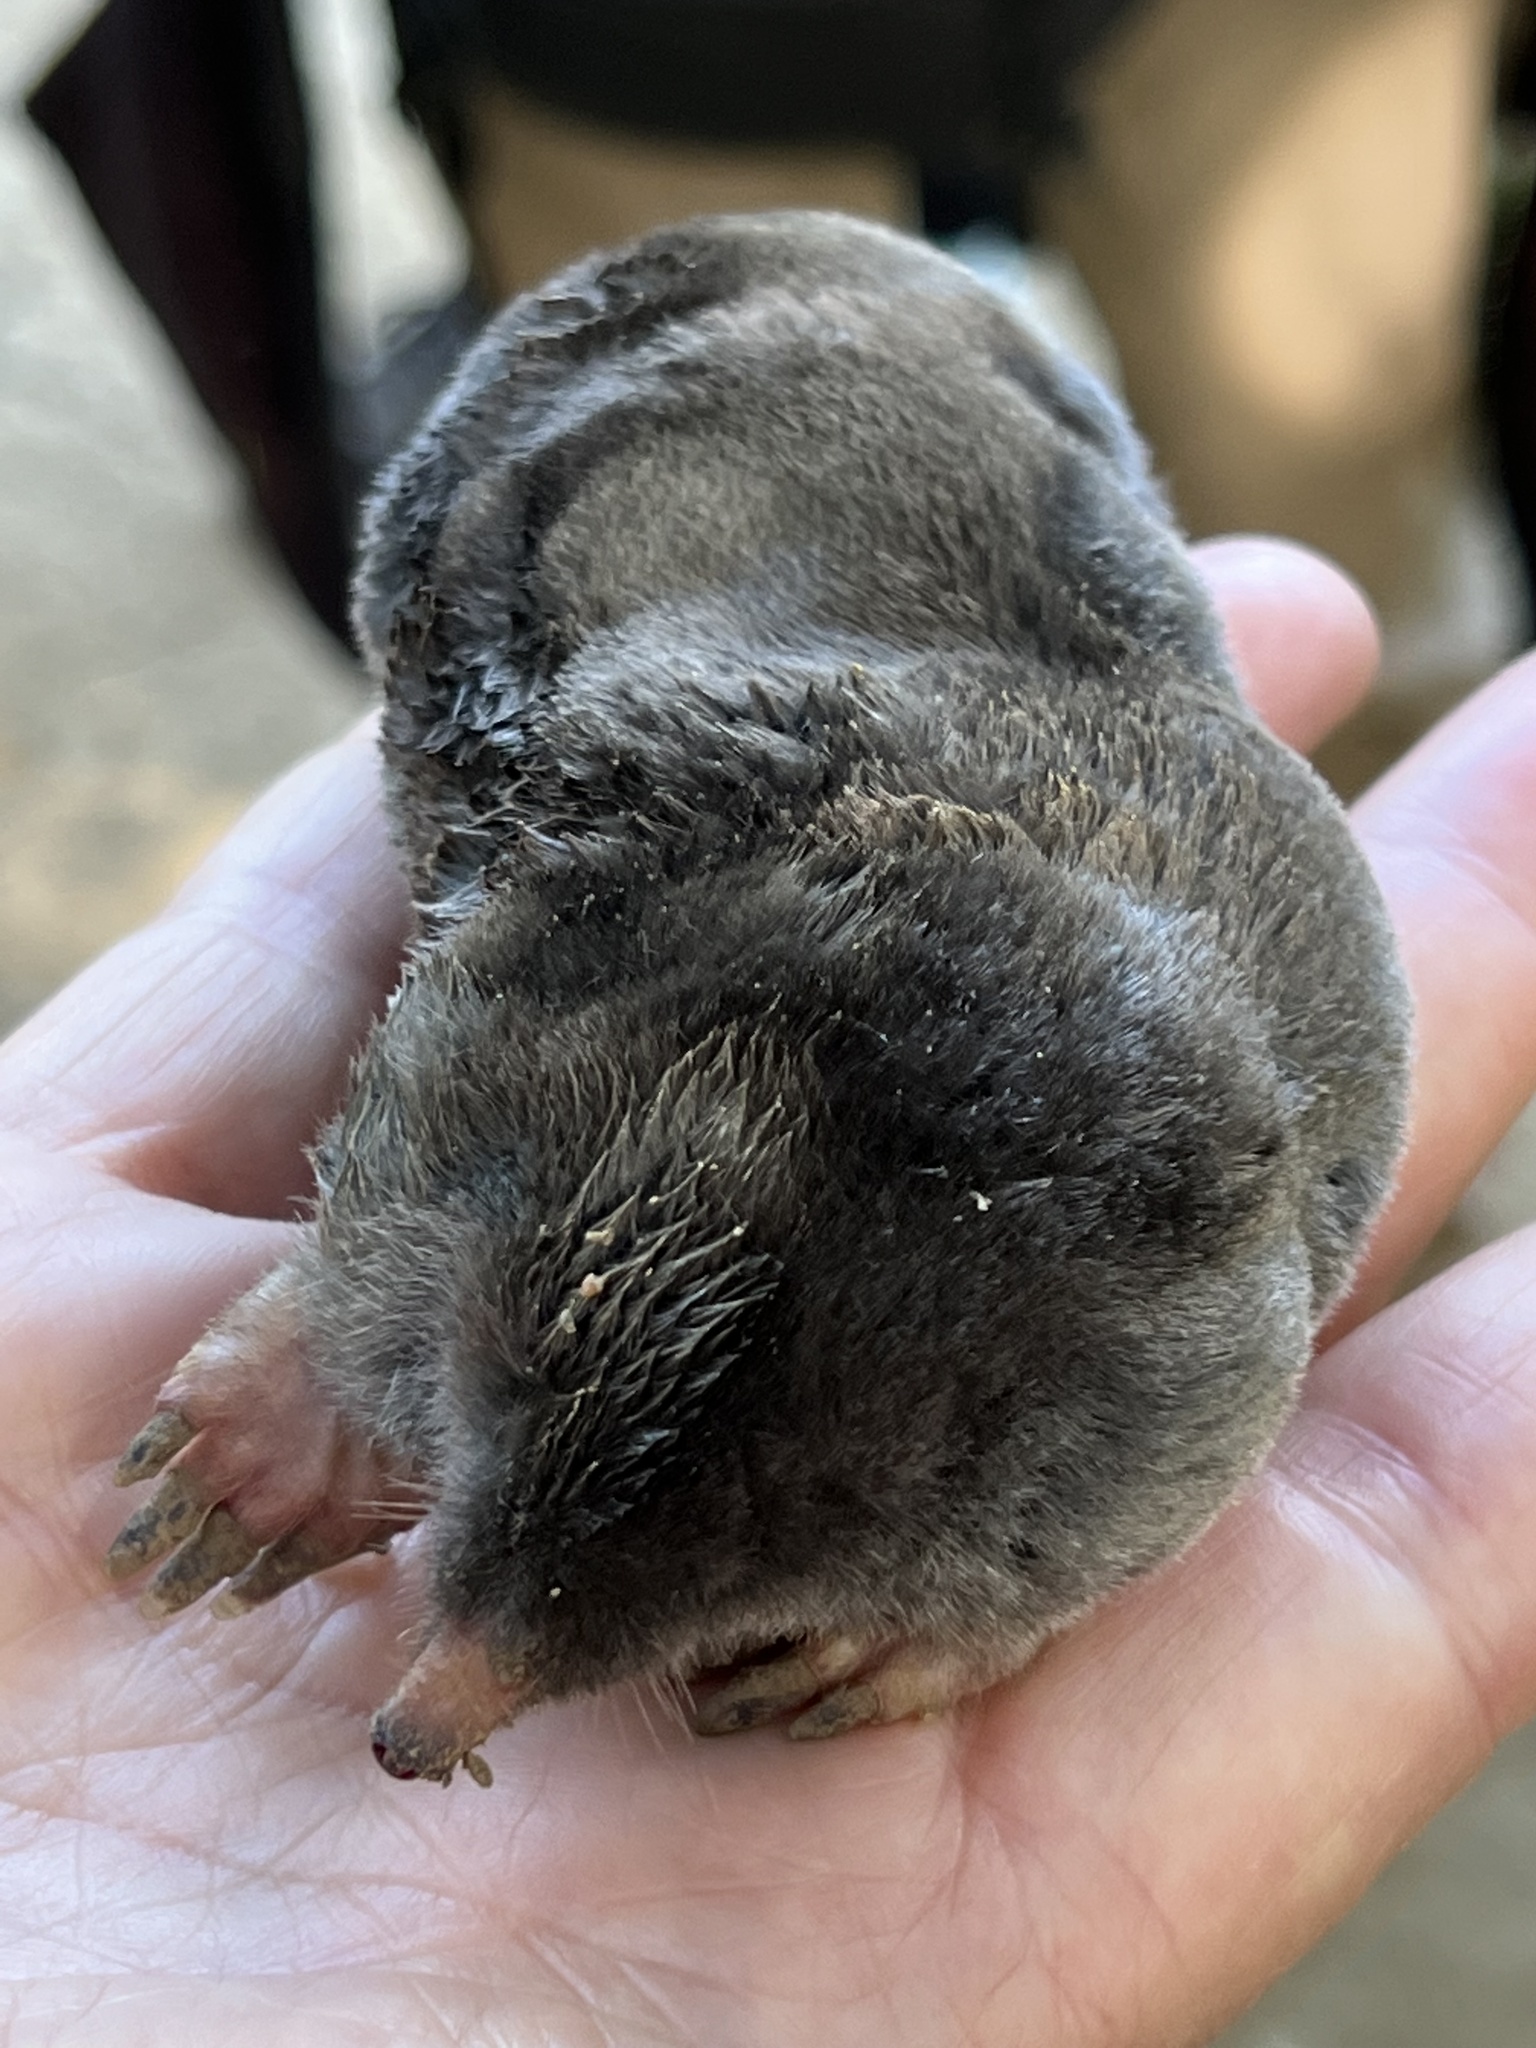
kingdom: Animalia
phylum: Chordata
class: Mammalia
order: Soricomorpha
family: Talpidae
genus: Scapanus
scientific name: Scapanus latimanus
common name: Broad-footed mole
